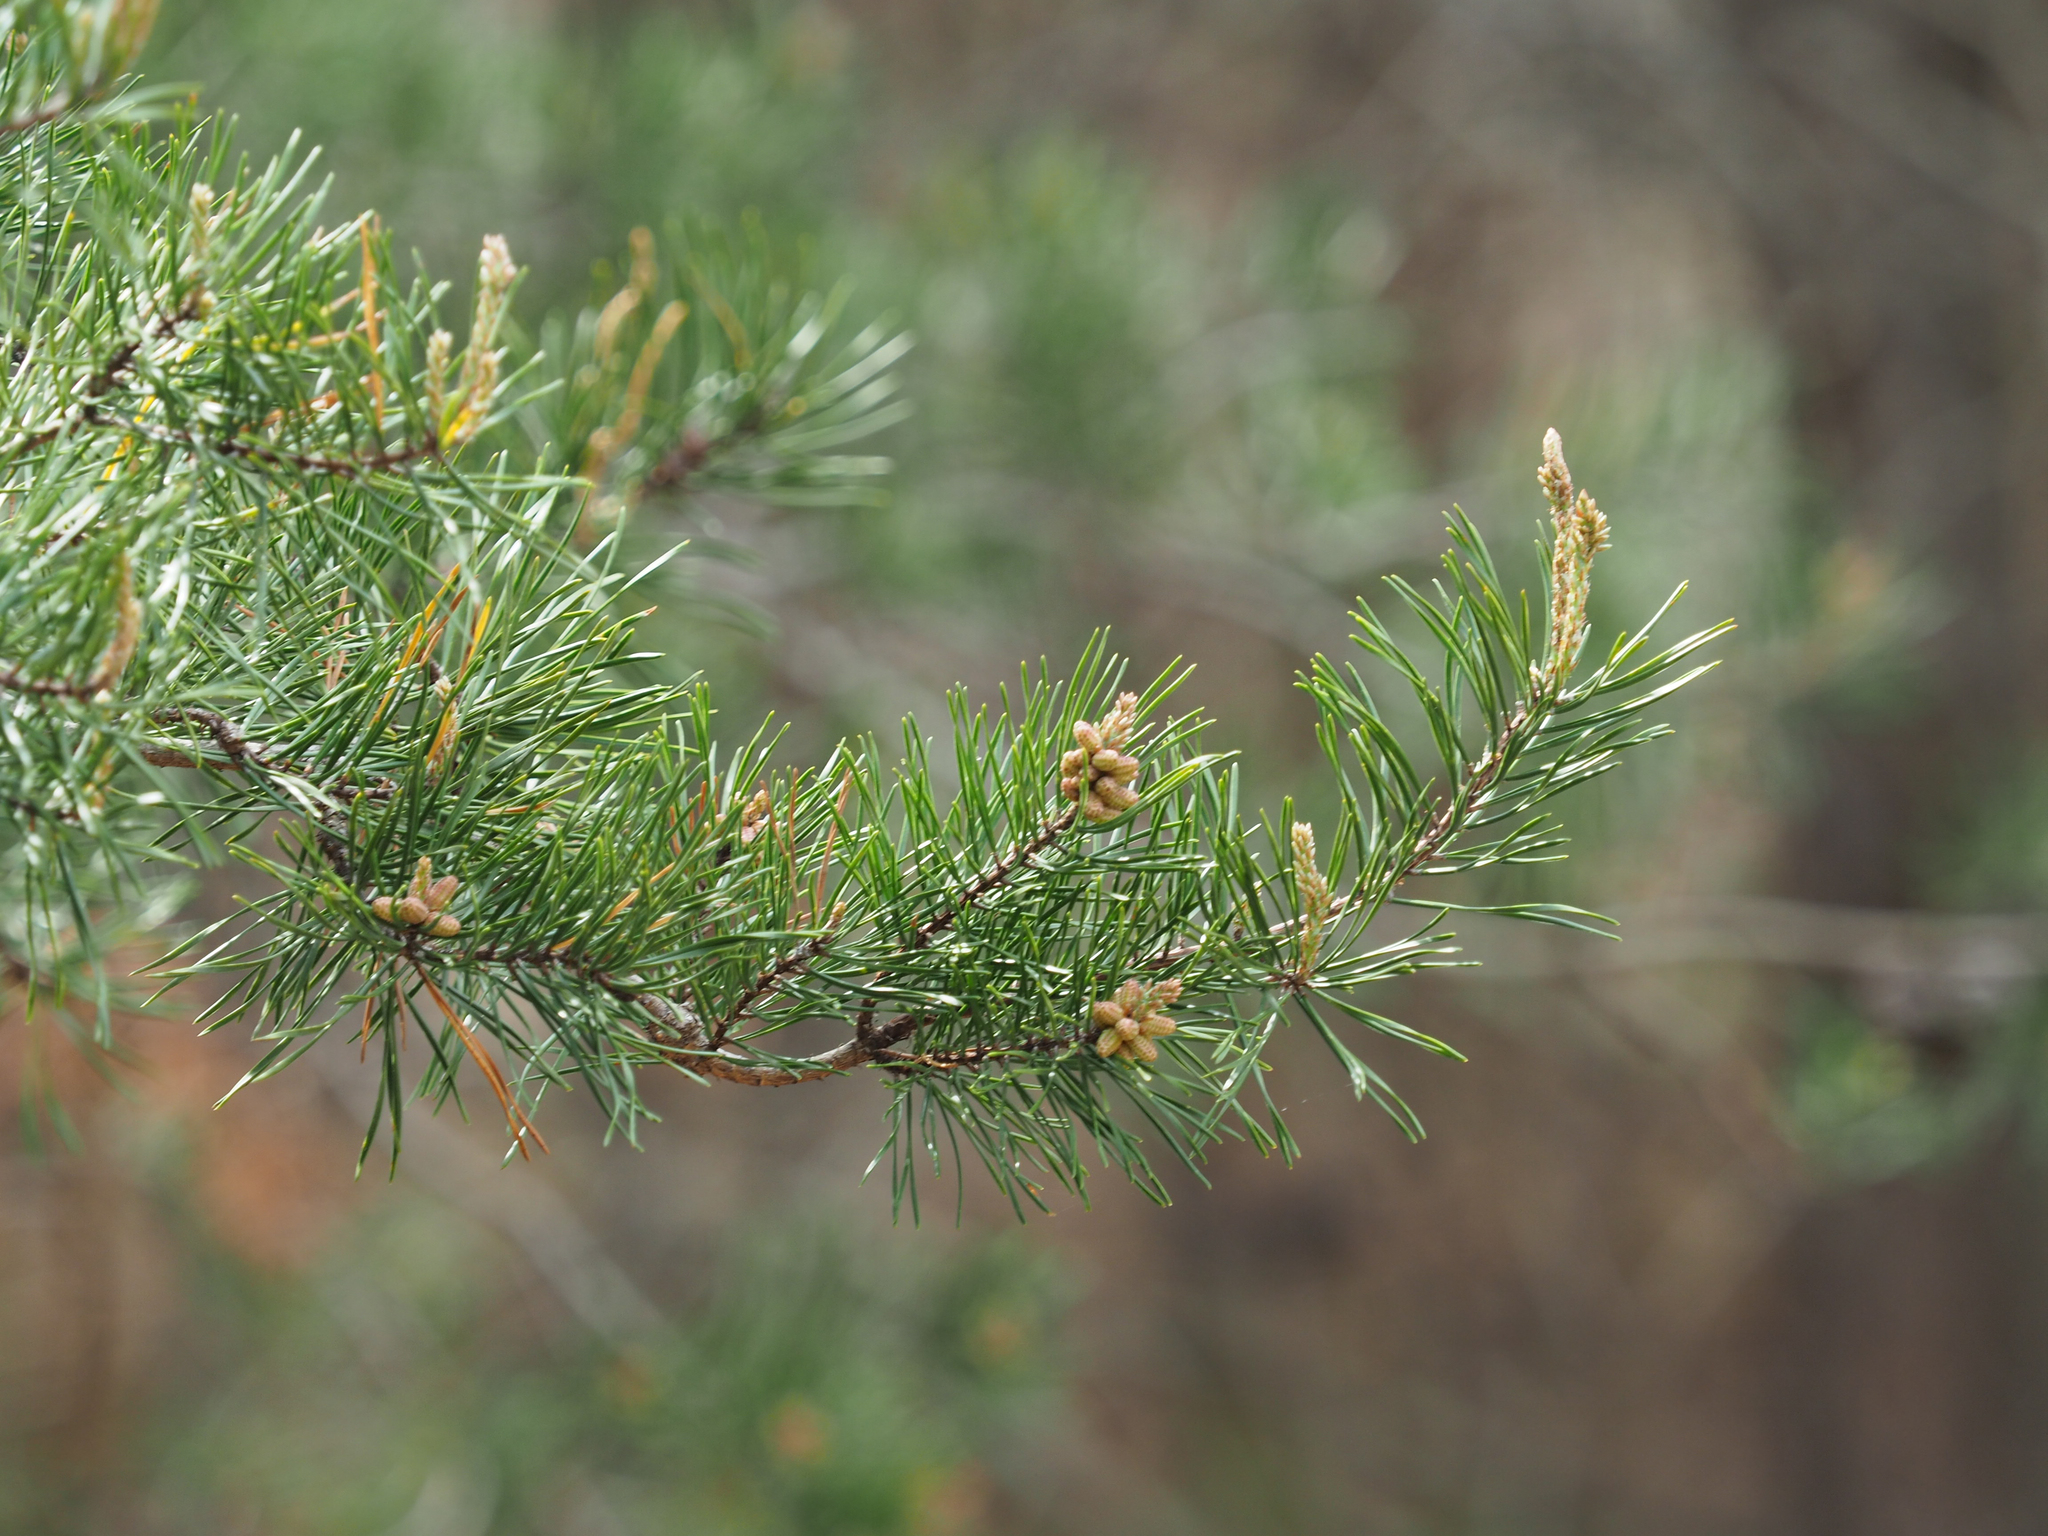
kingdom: Plantae
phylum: Tracheophyta
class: Pinopsida
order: Pinales
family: Pinaceae
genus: Pinus
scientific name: Pinus virginiana
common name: Scrub pine
